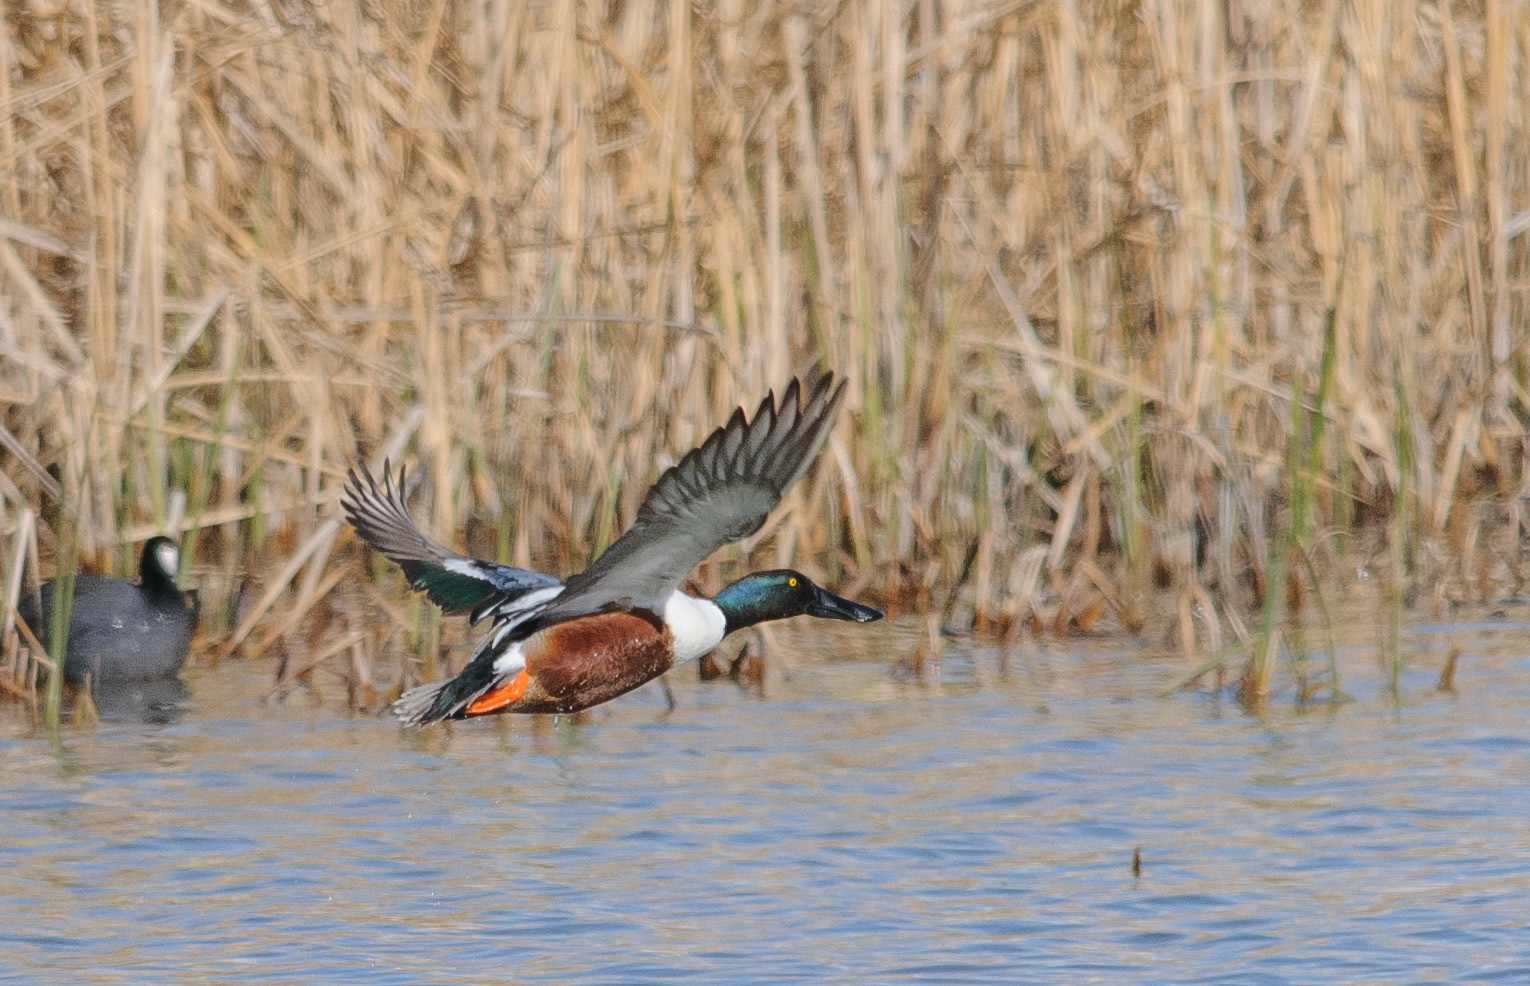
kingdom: Animalia
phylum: Chordata
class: Aves
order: Anseriformes
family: Anatidae
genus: Spatula
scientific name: Spatula clypeata
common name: Northern shoveler
